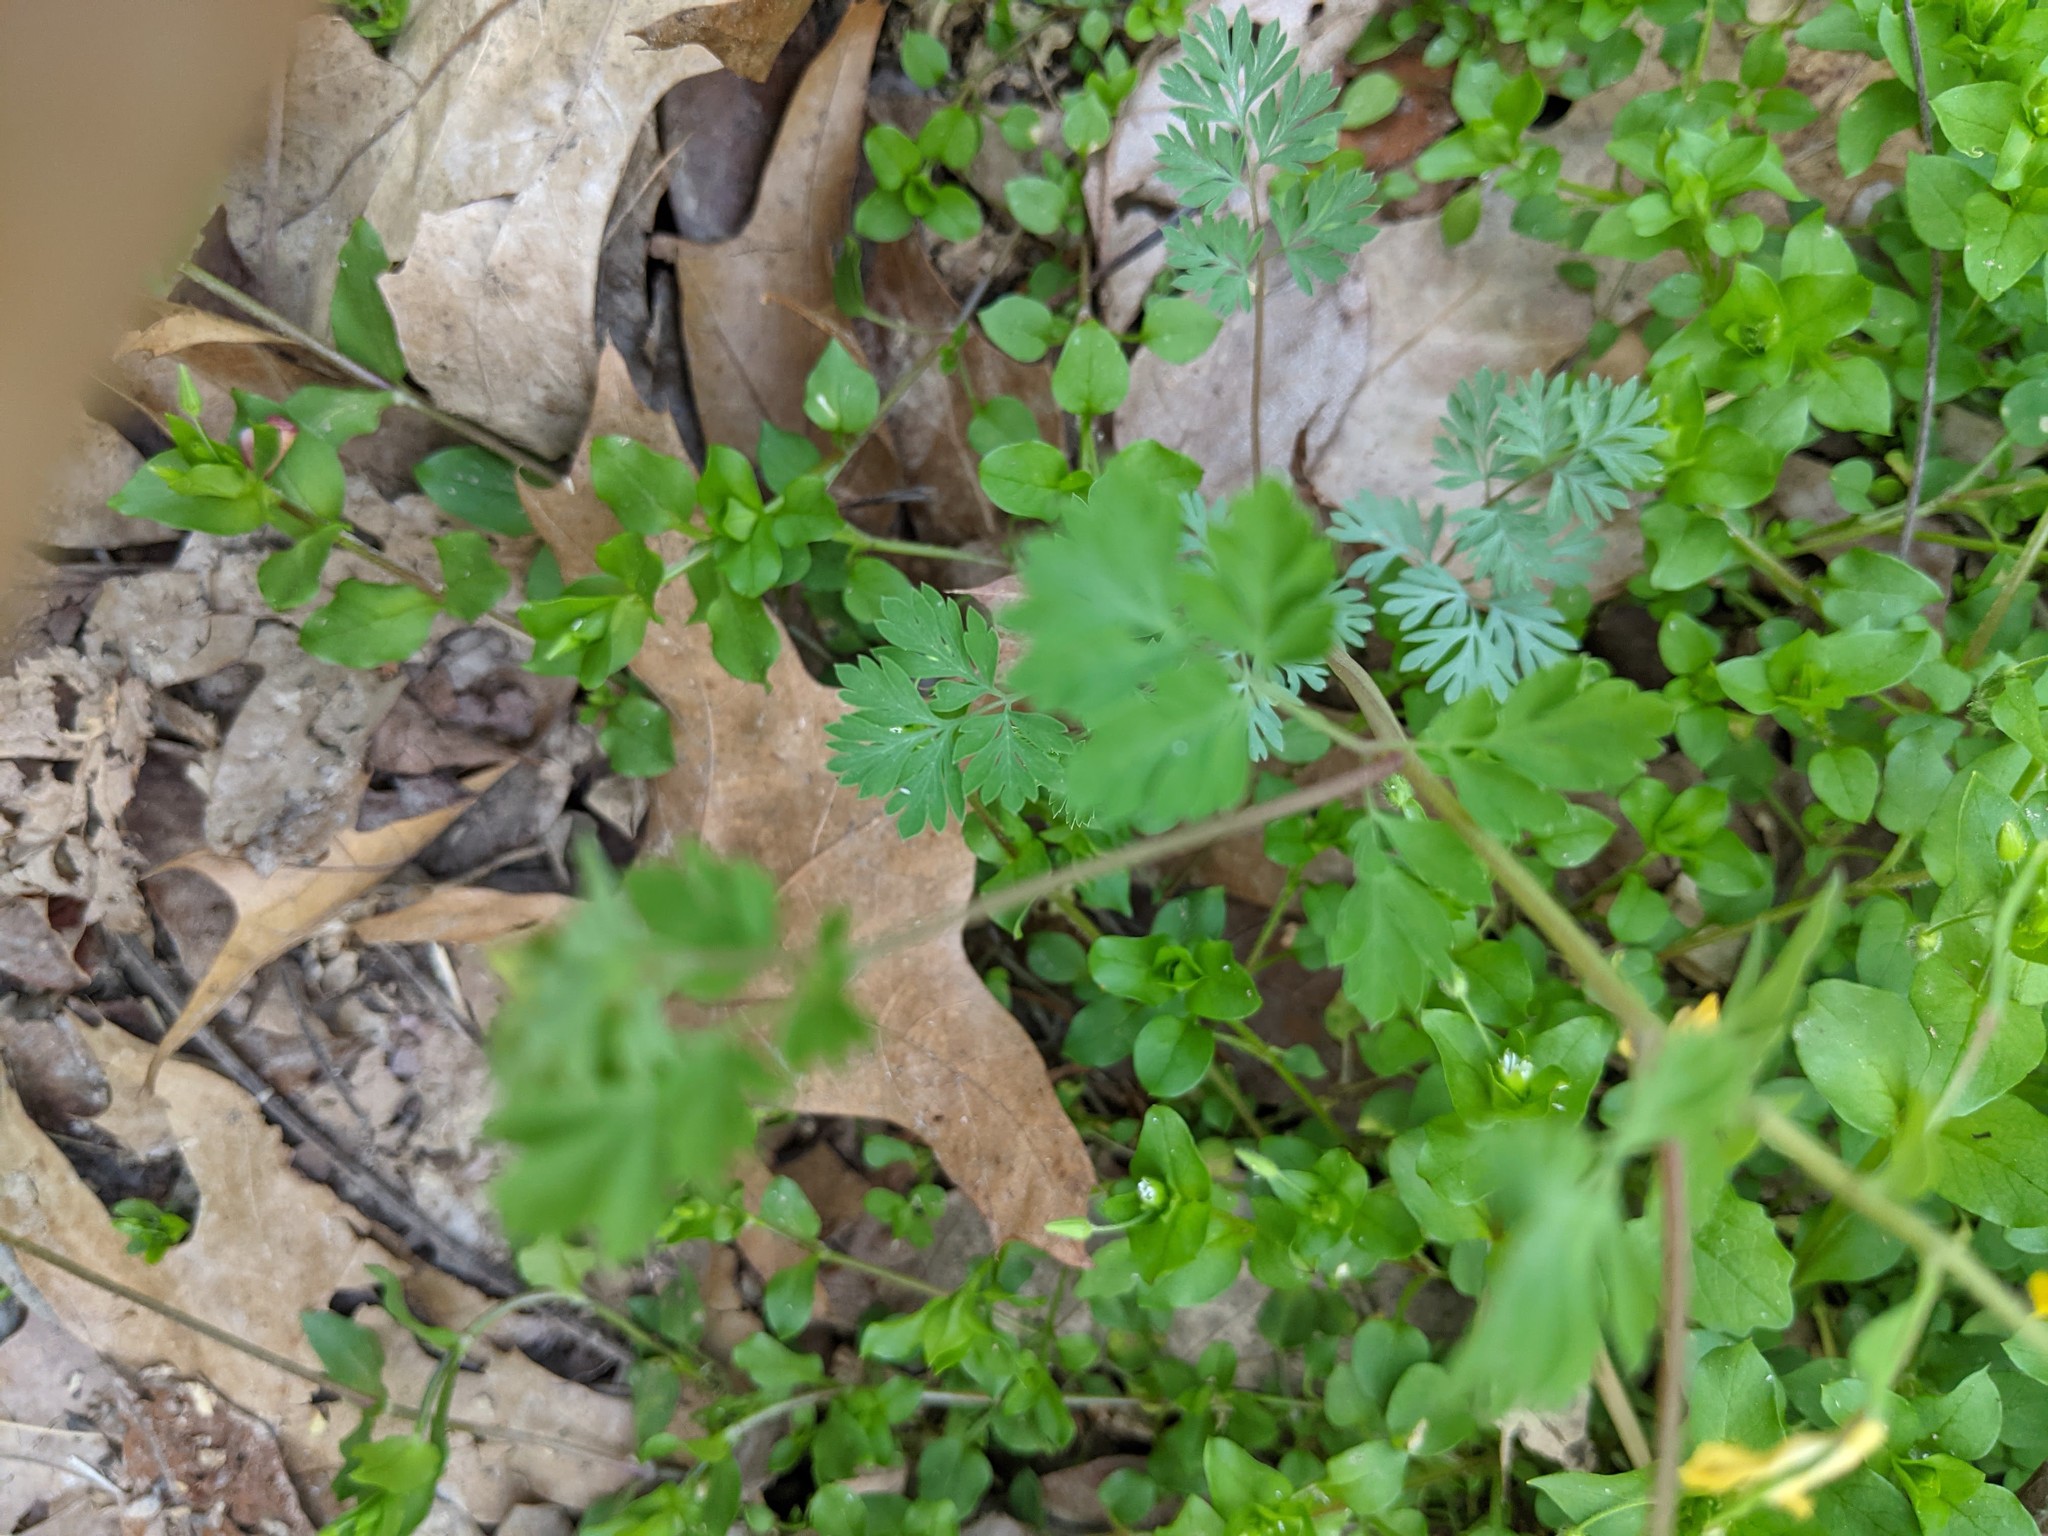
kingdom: Plantae
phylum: Tracheophyta
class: Magnoliopsida
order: Ranunculales
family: Papaveraceae
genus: Corydalis
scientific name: Corydalis flavula
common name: Yellow corydalis
